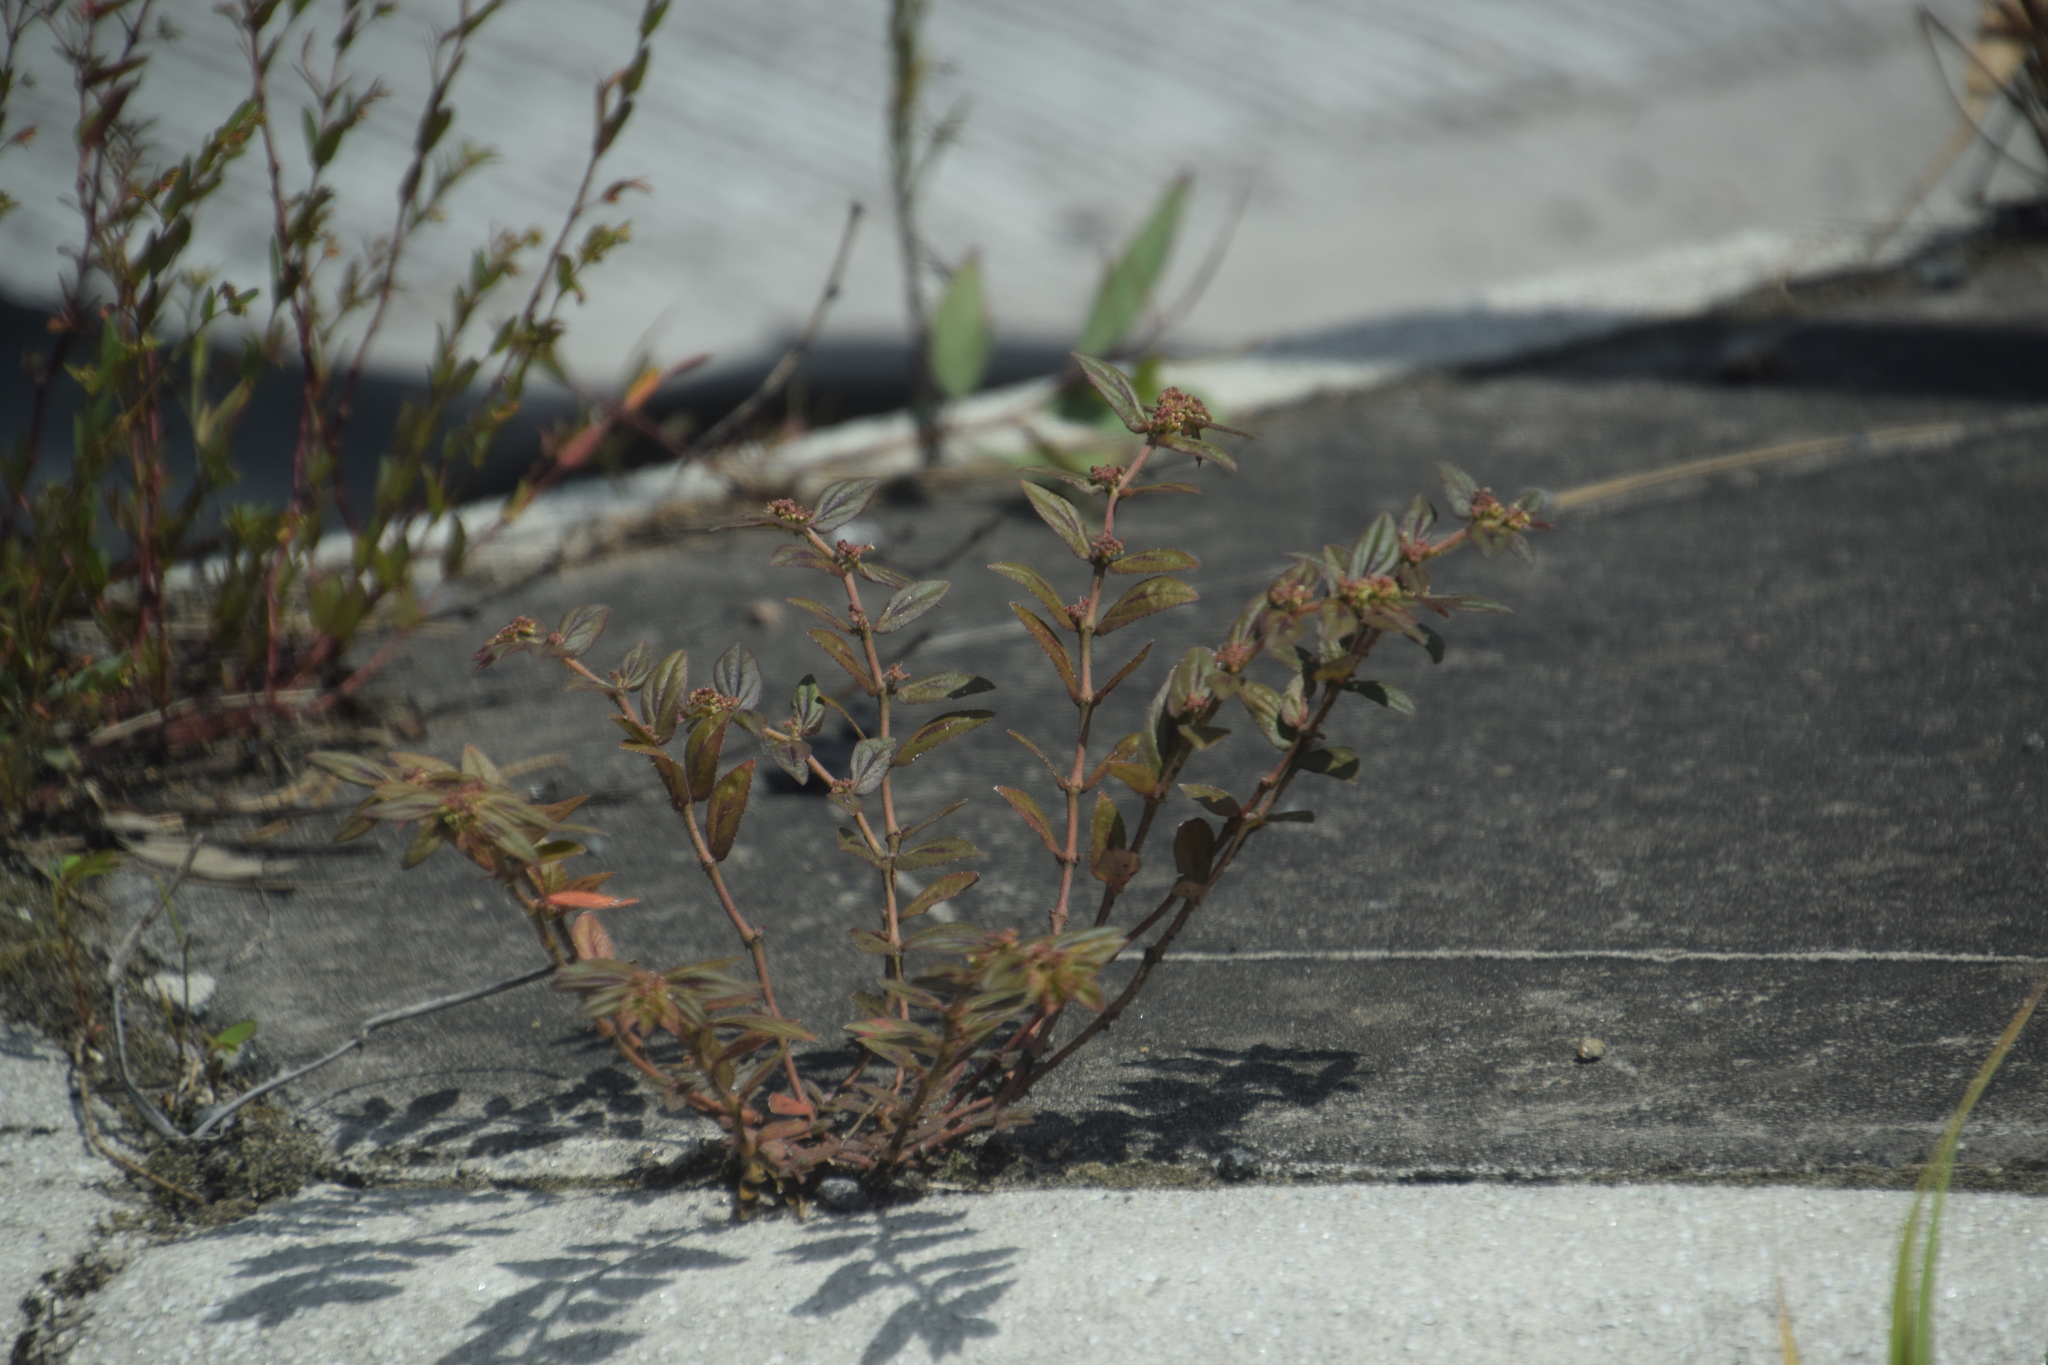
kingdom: Plantae
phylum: Tracheophyta
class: Magnoliopsida
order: Malpighiales
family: Euphorbiaceae
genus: Euphorbia
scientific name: Euphorbia hirta
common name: Pillpod sandmat
